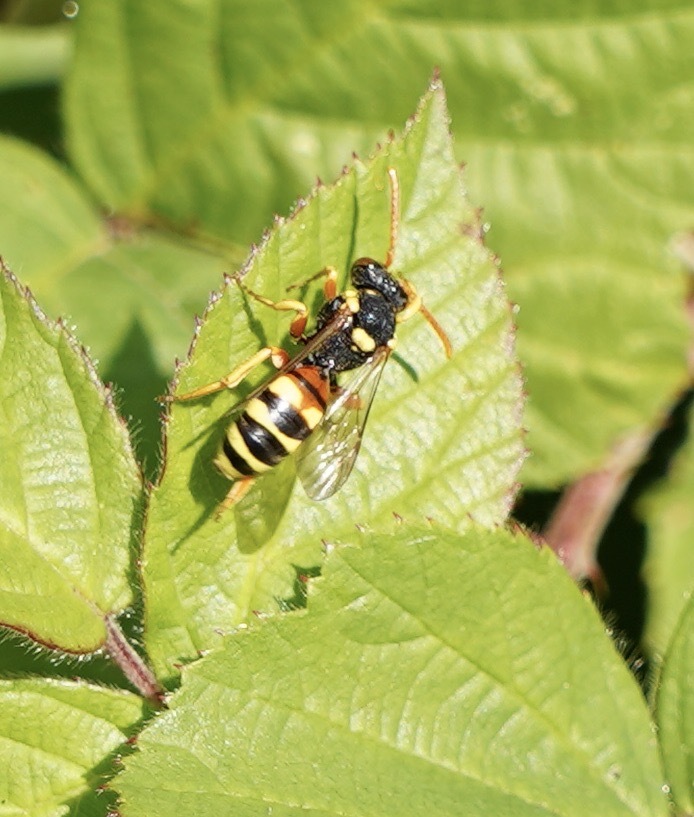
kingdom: Animalia
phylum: Arthropoda
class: Insecta
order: Hymenoptera
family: Apidae
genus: Nomada
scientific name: Nomada fucata
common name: Painted nomad bee
